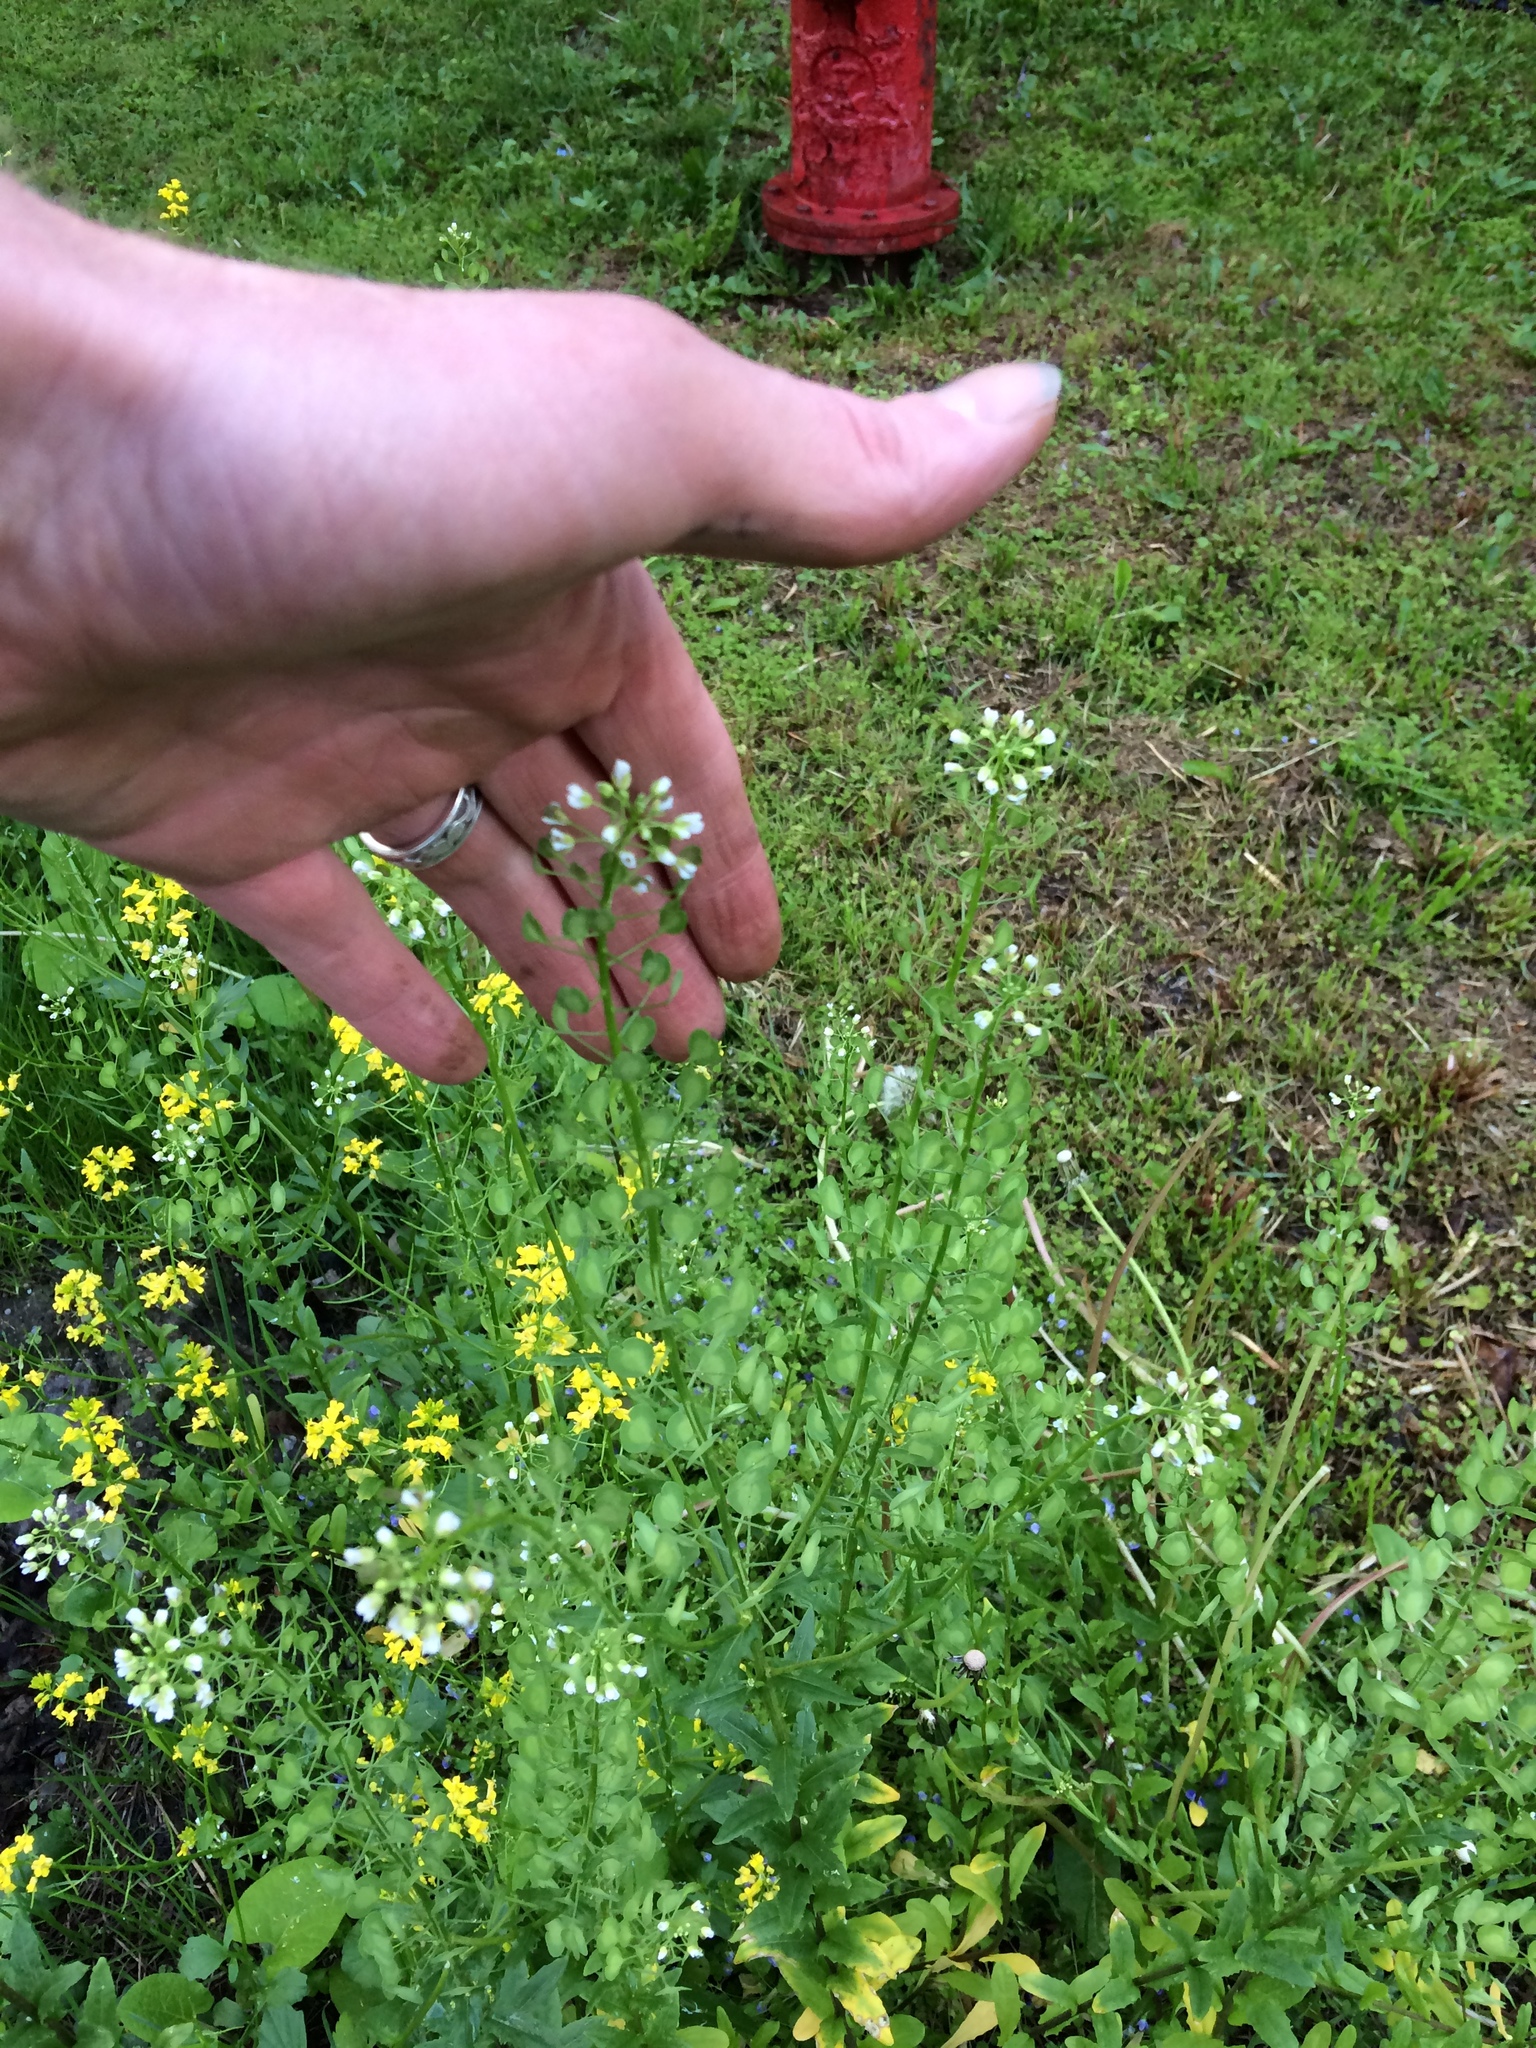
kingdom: Plantae
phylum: Tracheophyta
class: Magnoliopsida
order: Brassicales
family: Brassicaceae
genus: Thlaspi
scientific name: Thlaspi arvense
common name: Field pennycress
